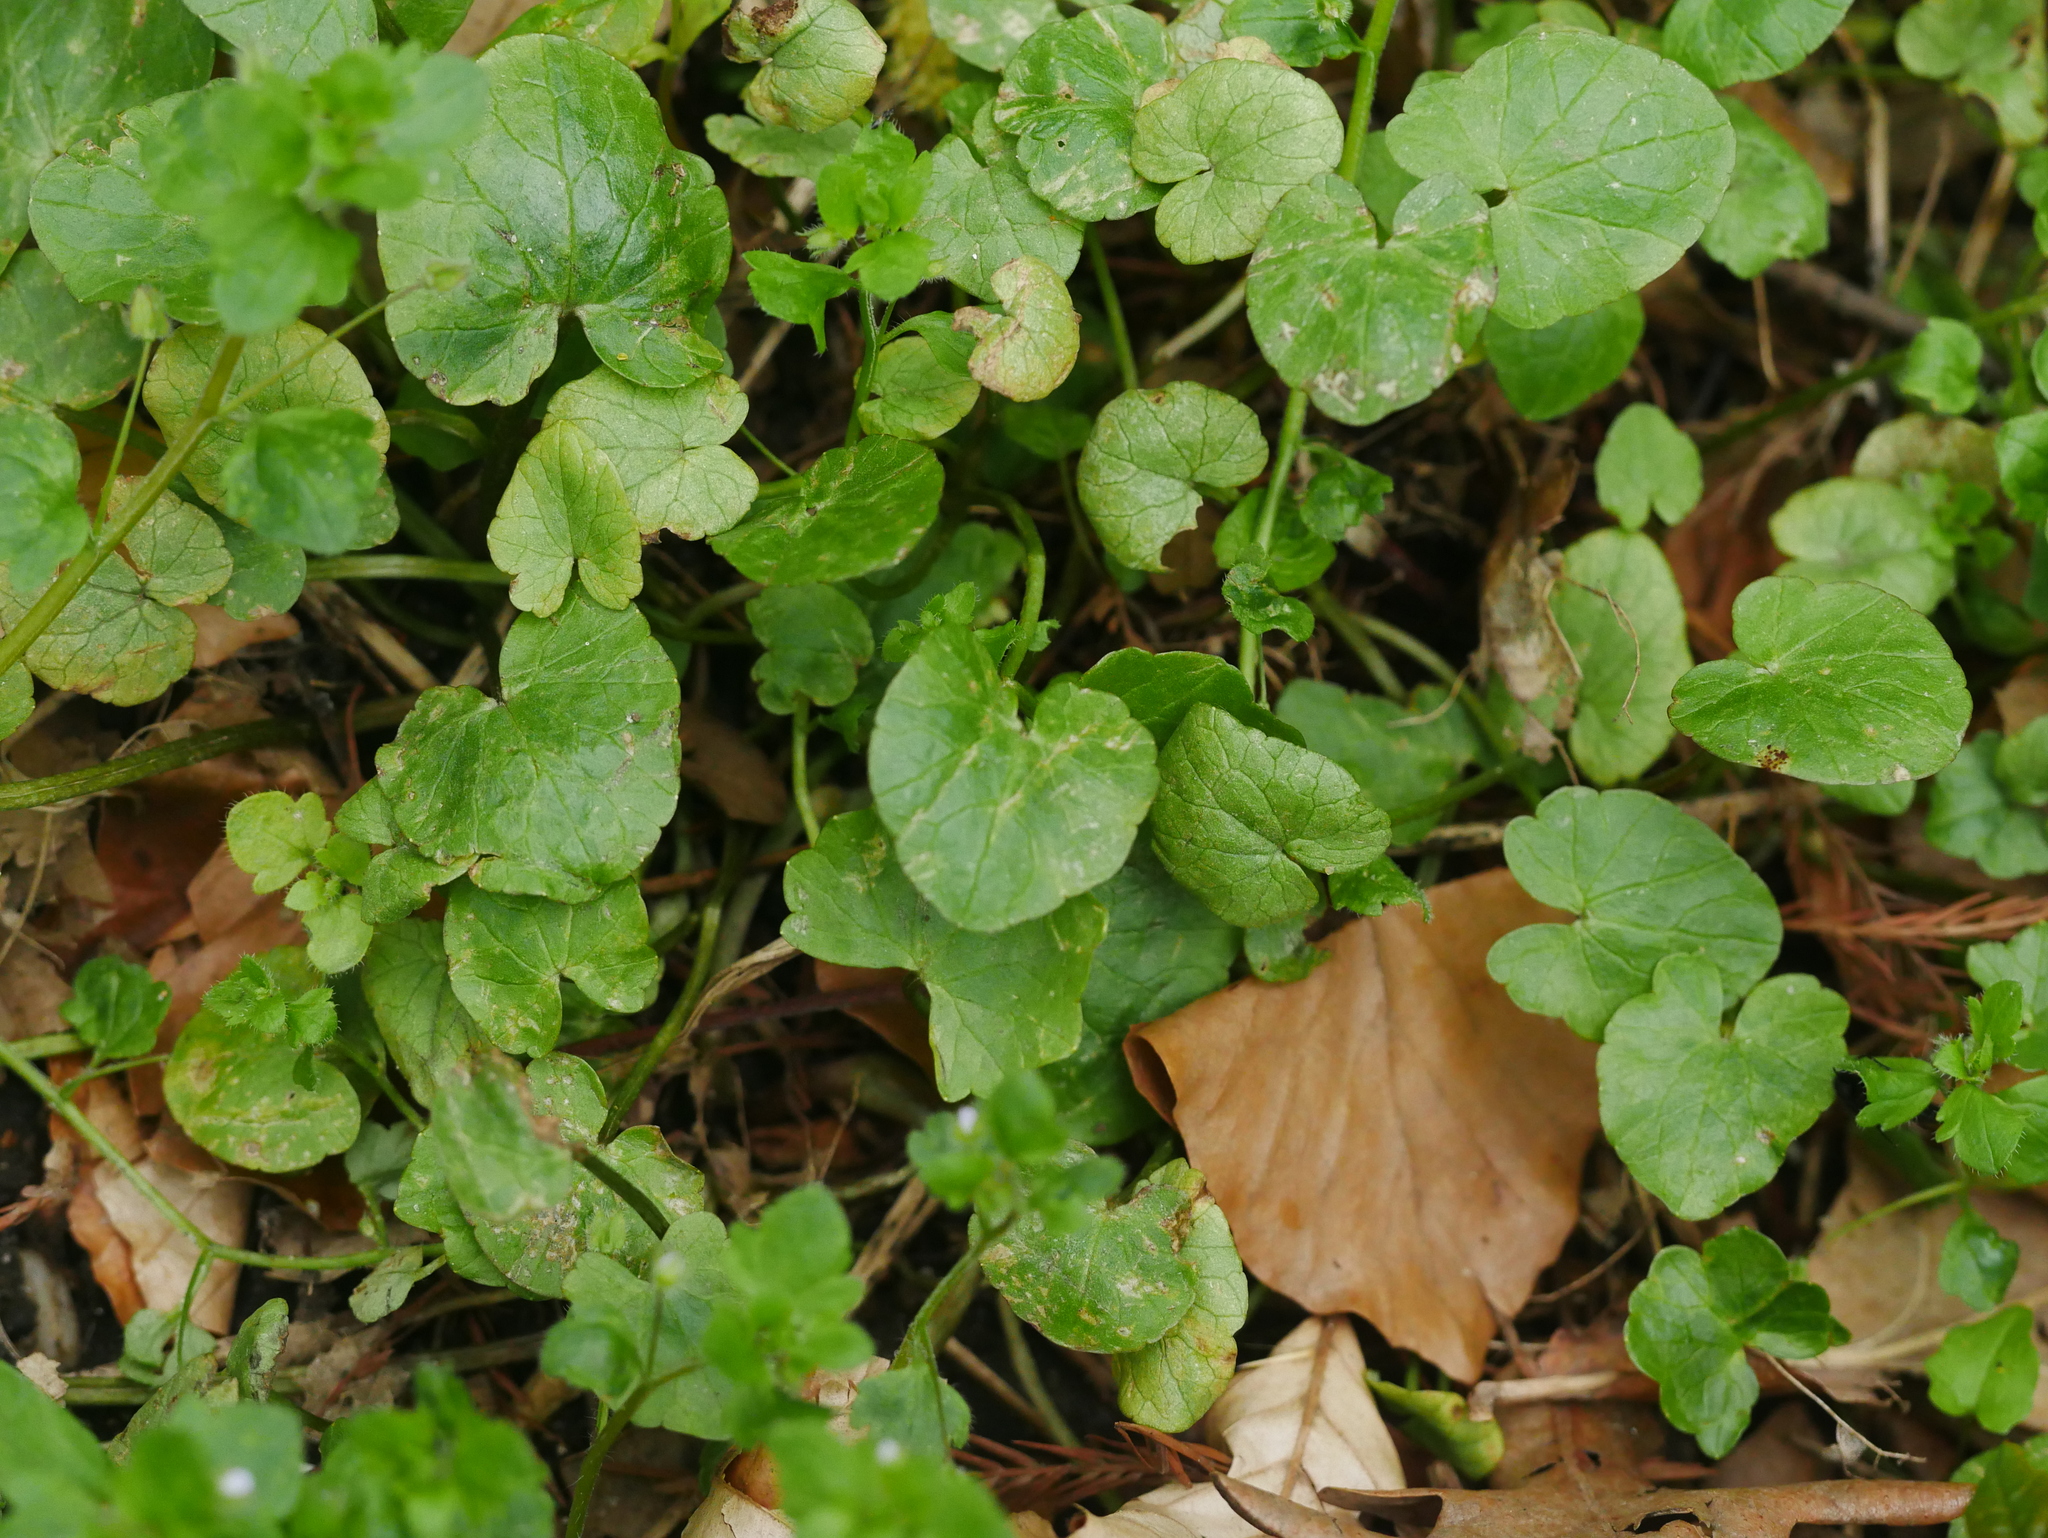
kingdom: Plantae
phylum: Tracheophyta
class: Magnoliopsida
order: Ranunculales
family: Ranunculaceae
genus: Ficaria
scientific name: Ficaria verna
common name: Lesser celandine
